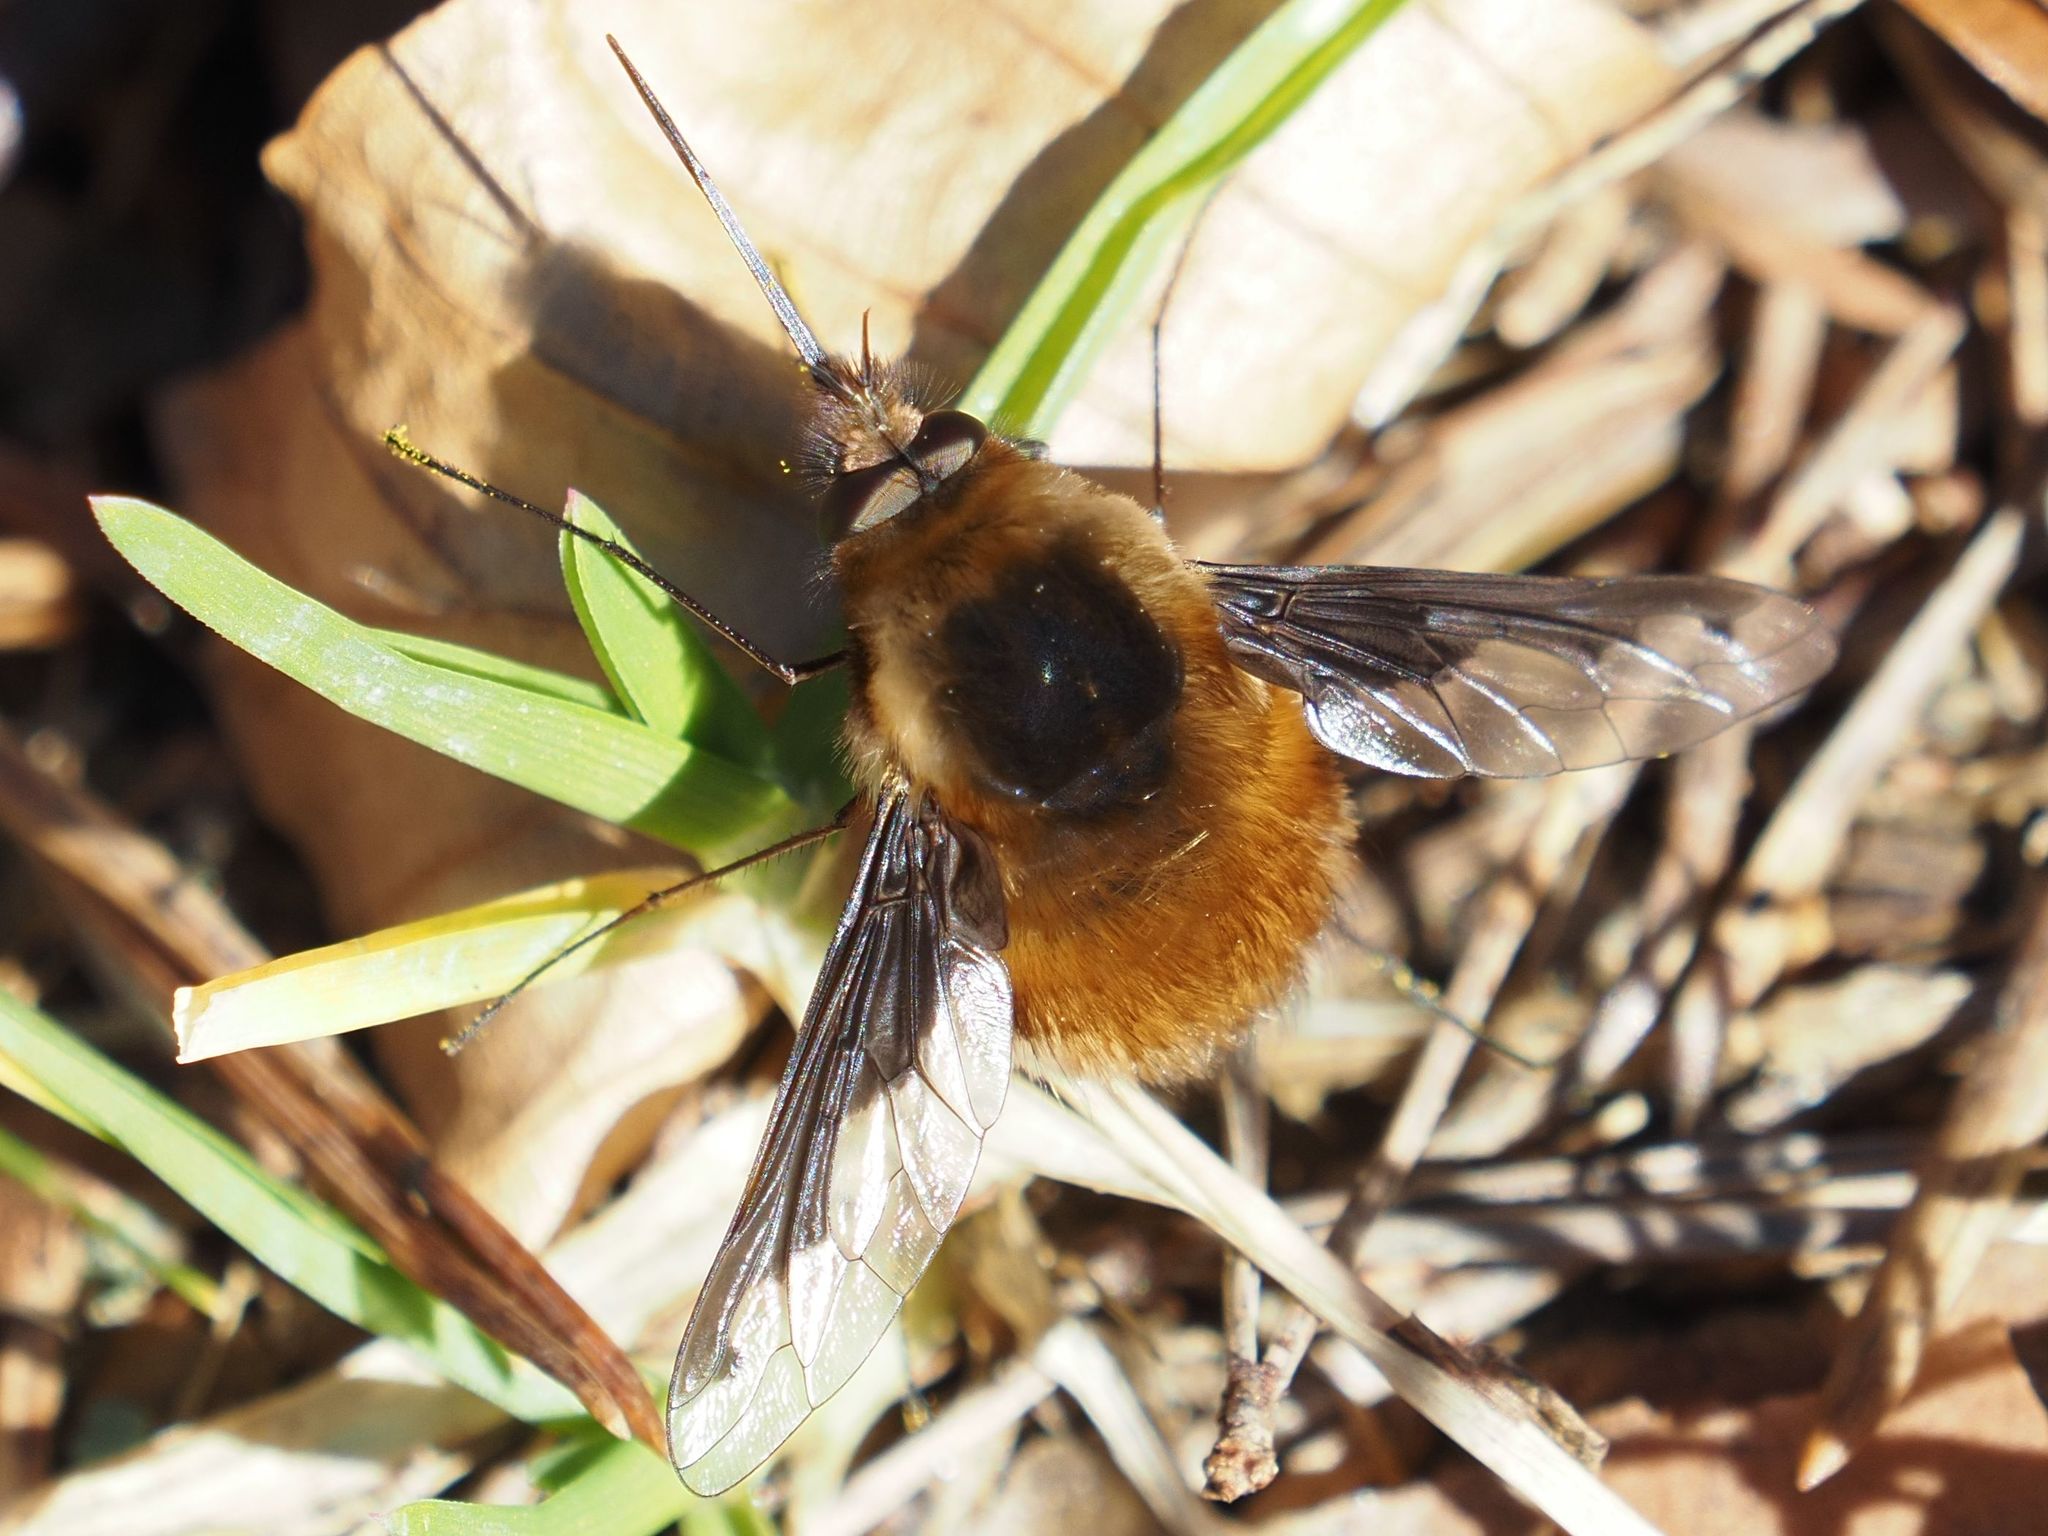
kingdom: Animalia
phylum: Arthropoda
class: Insecta
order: Diptera
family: Bombyliidae
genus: Bombylius
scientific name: Bombylius major
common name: Bee fly
